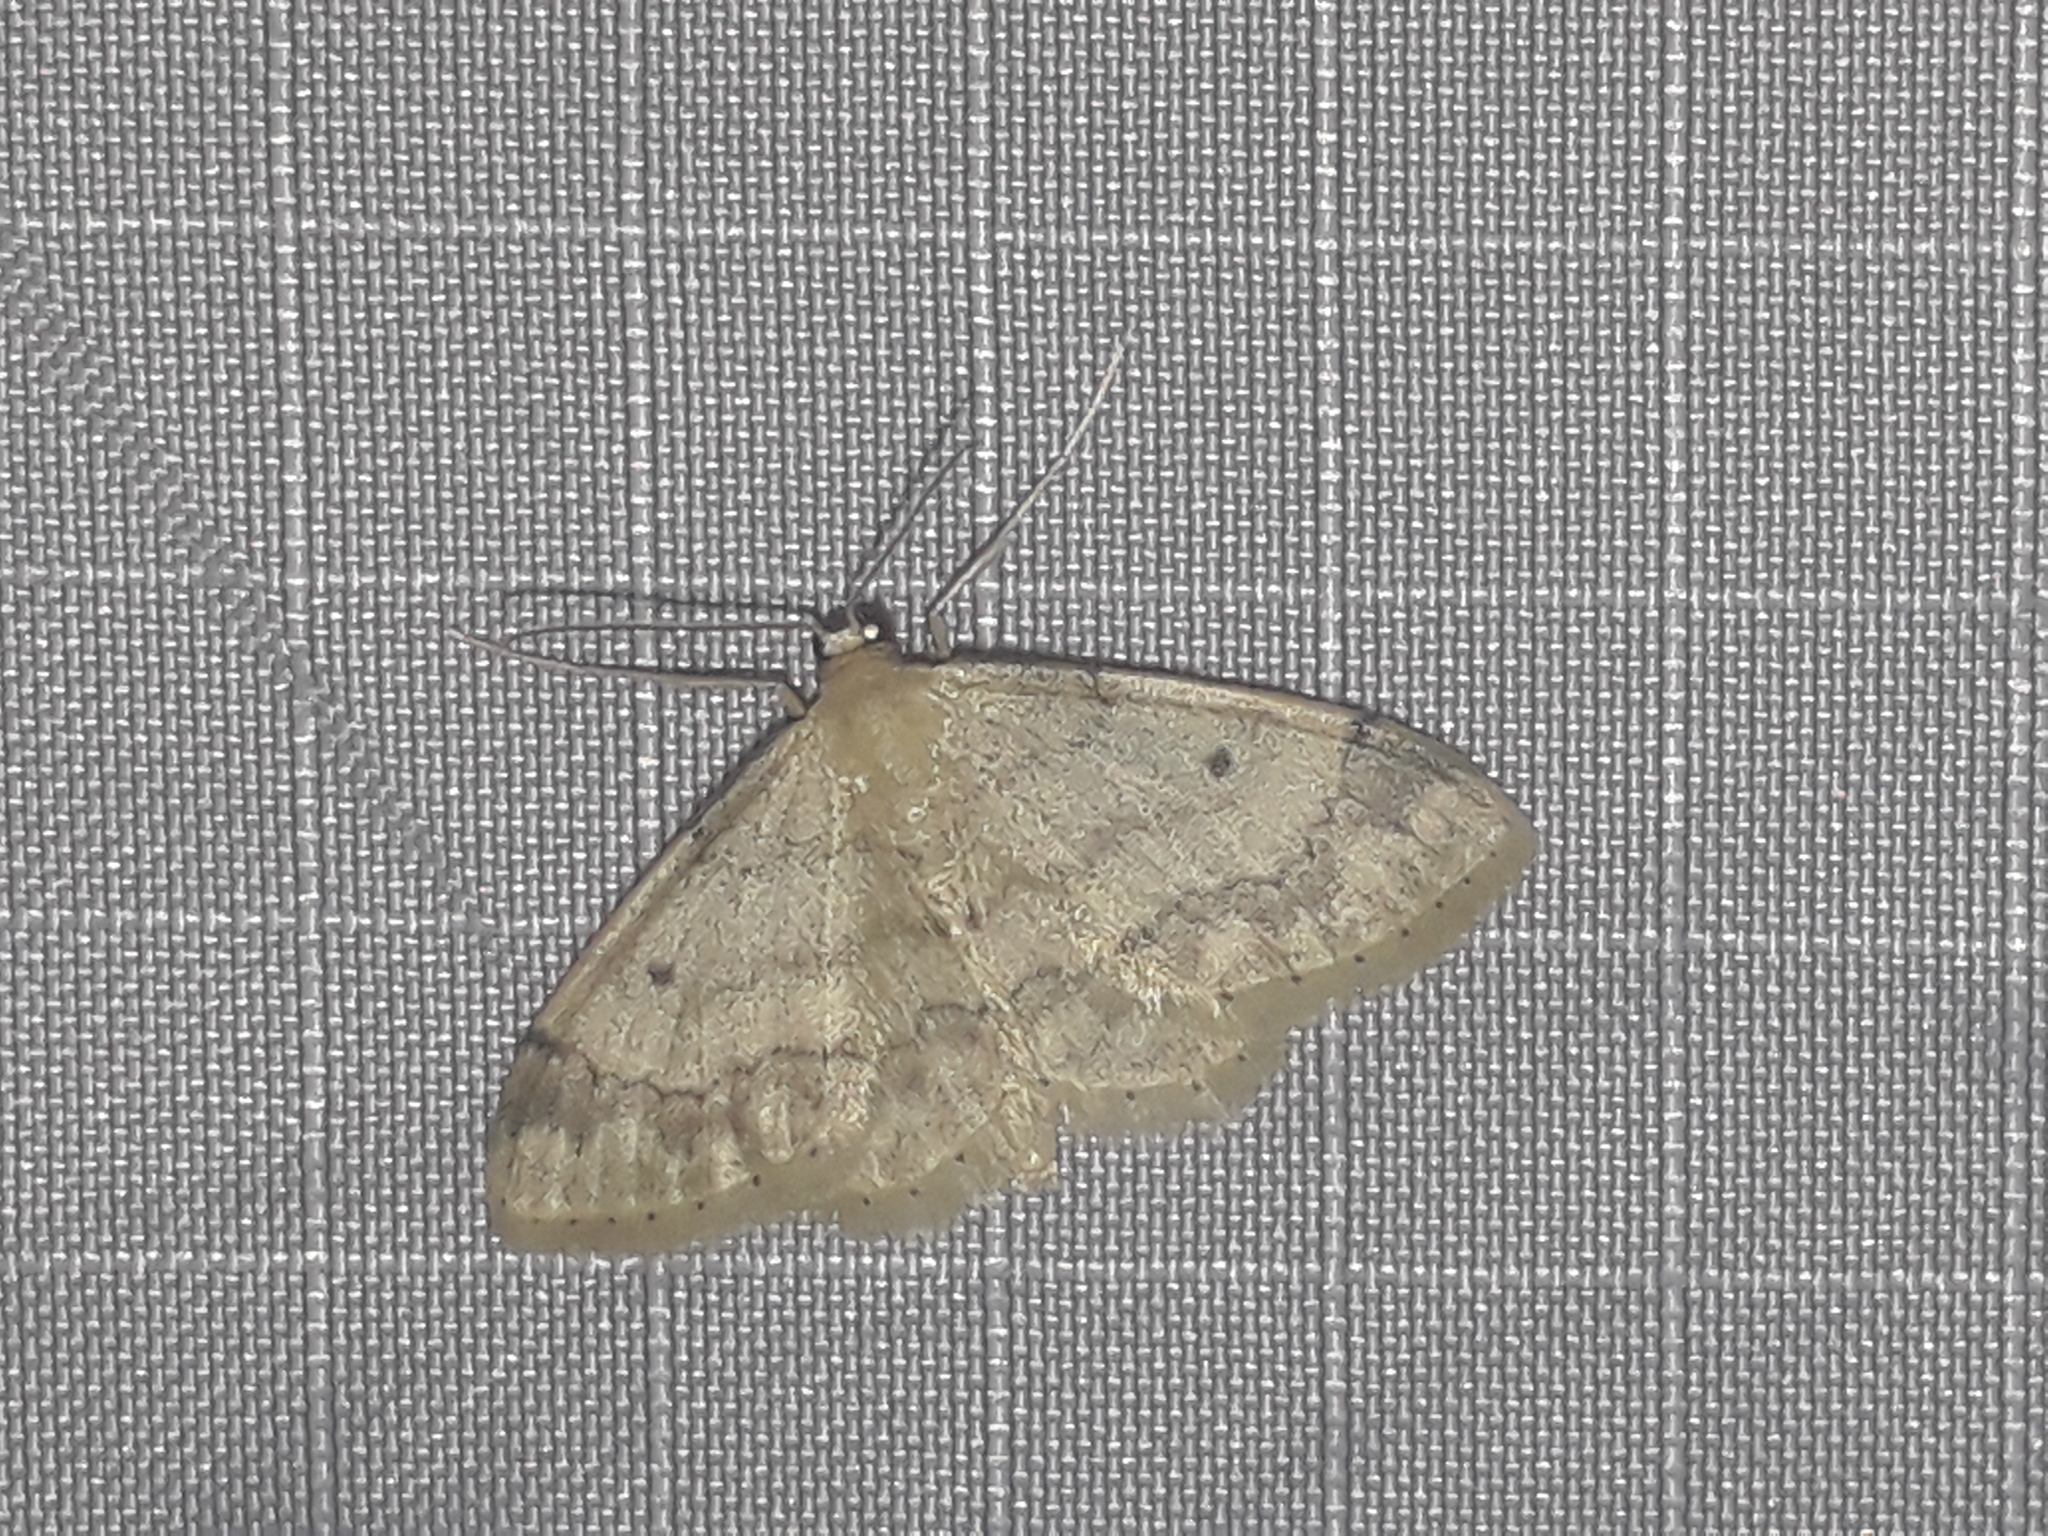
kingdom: Animalia
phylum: Arthropoda
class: Insecta
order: Lepidoptera
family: Geometridae
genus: Idaea
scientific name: Idaea biselata
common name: Small fan-footed wave
